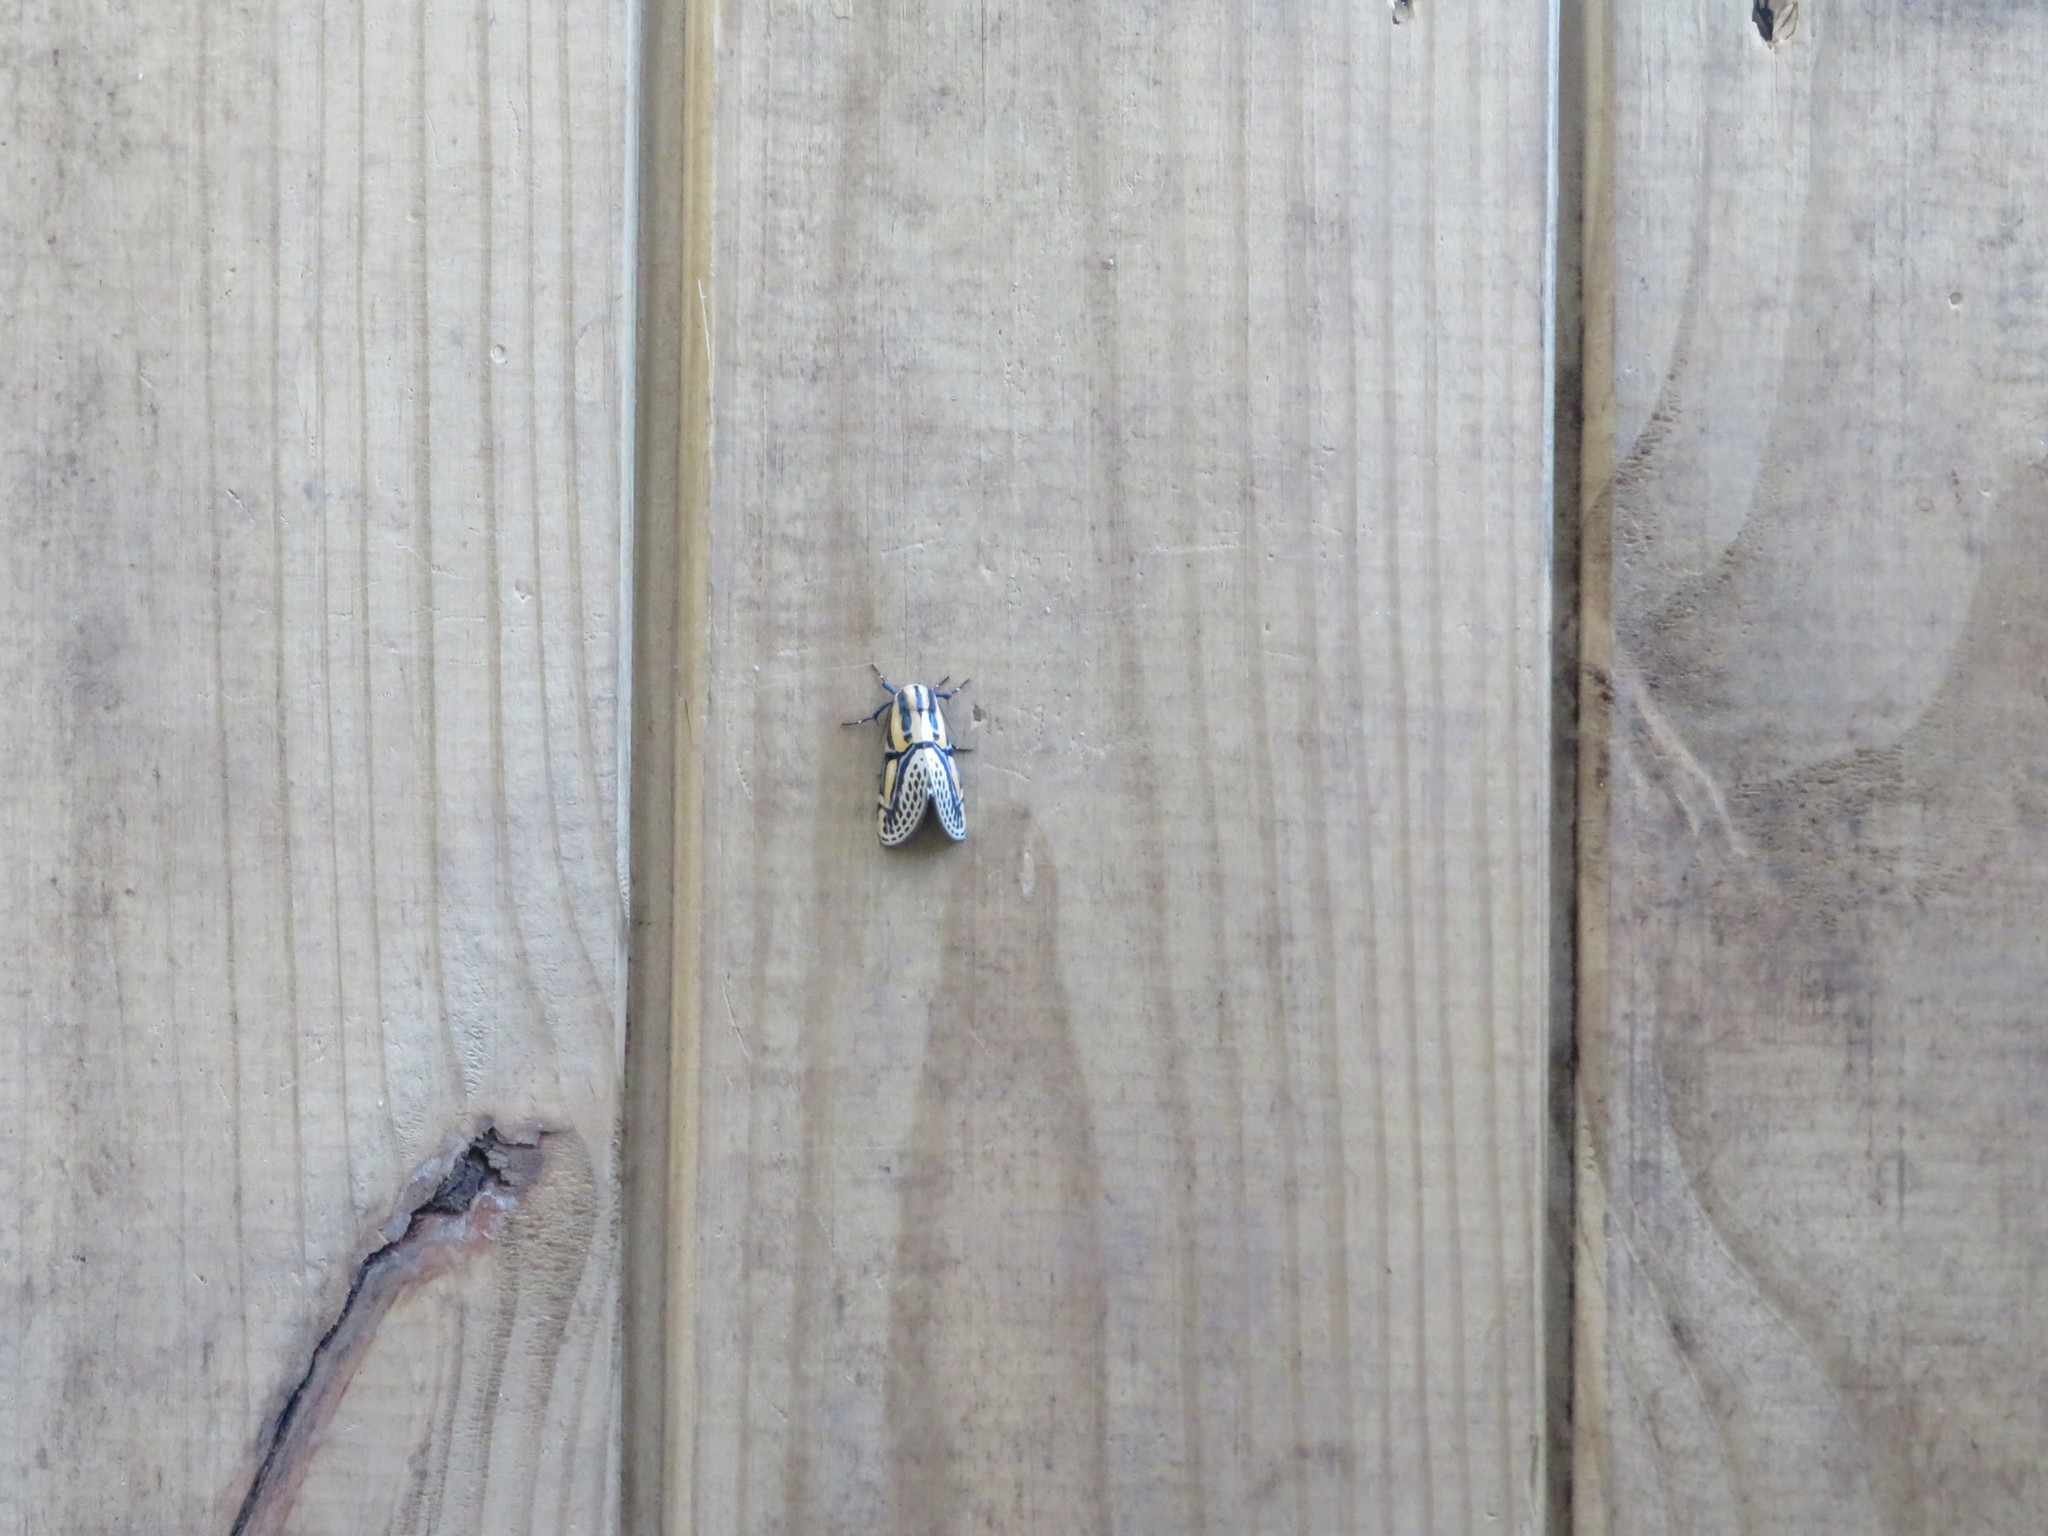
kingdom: Animalia
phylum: Arthropoda
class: Insecta
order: Lepidoptera
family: Erebidae
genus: Diphthera
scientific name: Diphthera festiva
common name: Hieroglyphic moth
